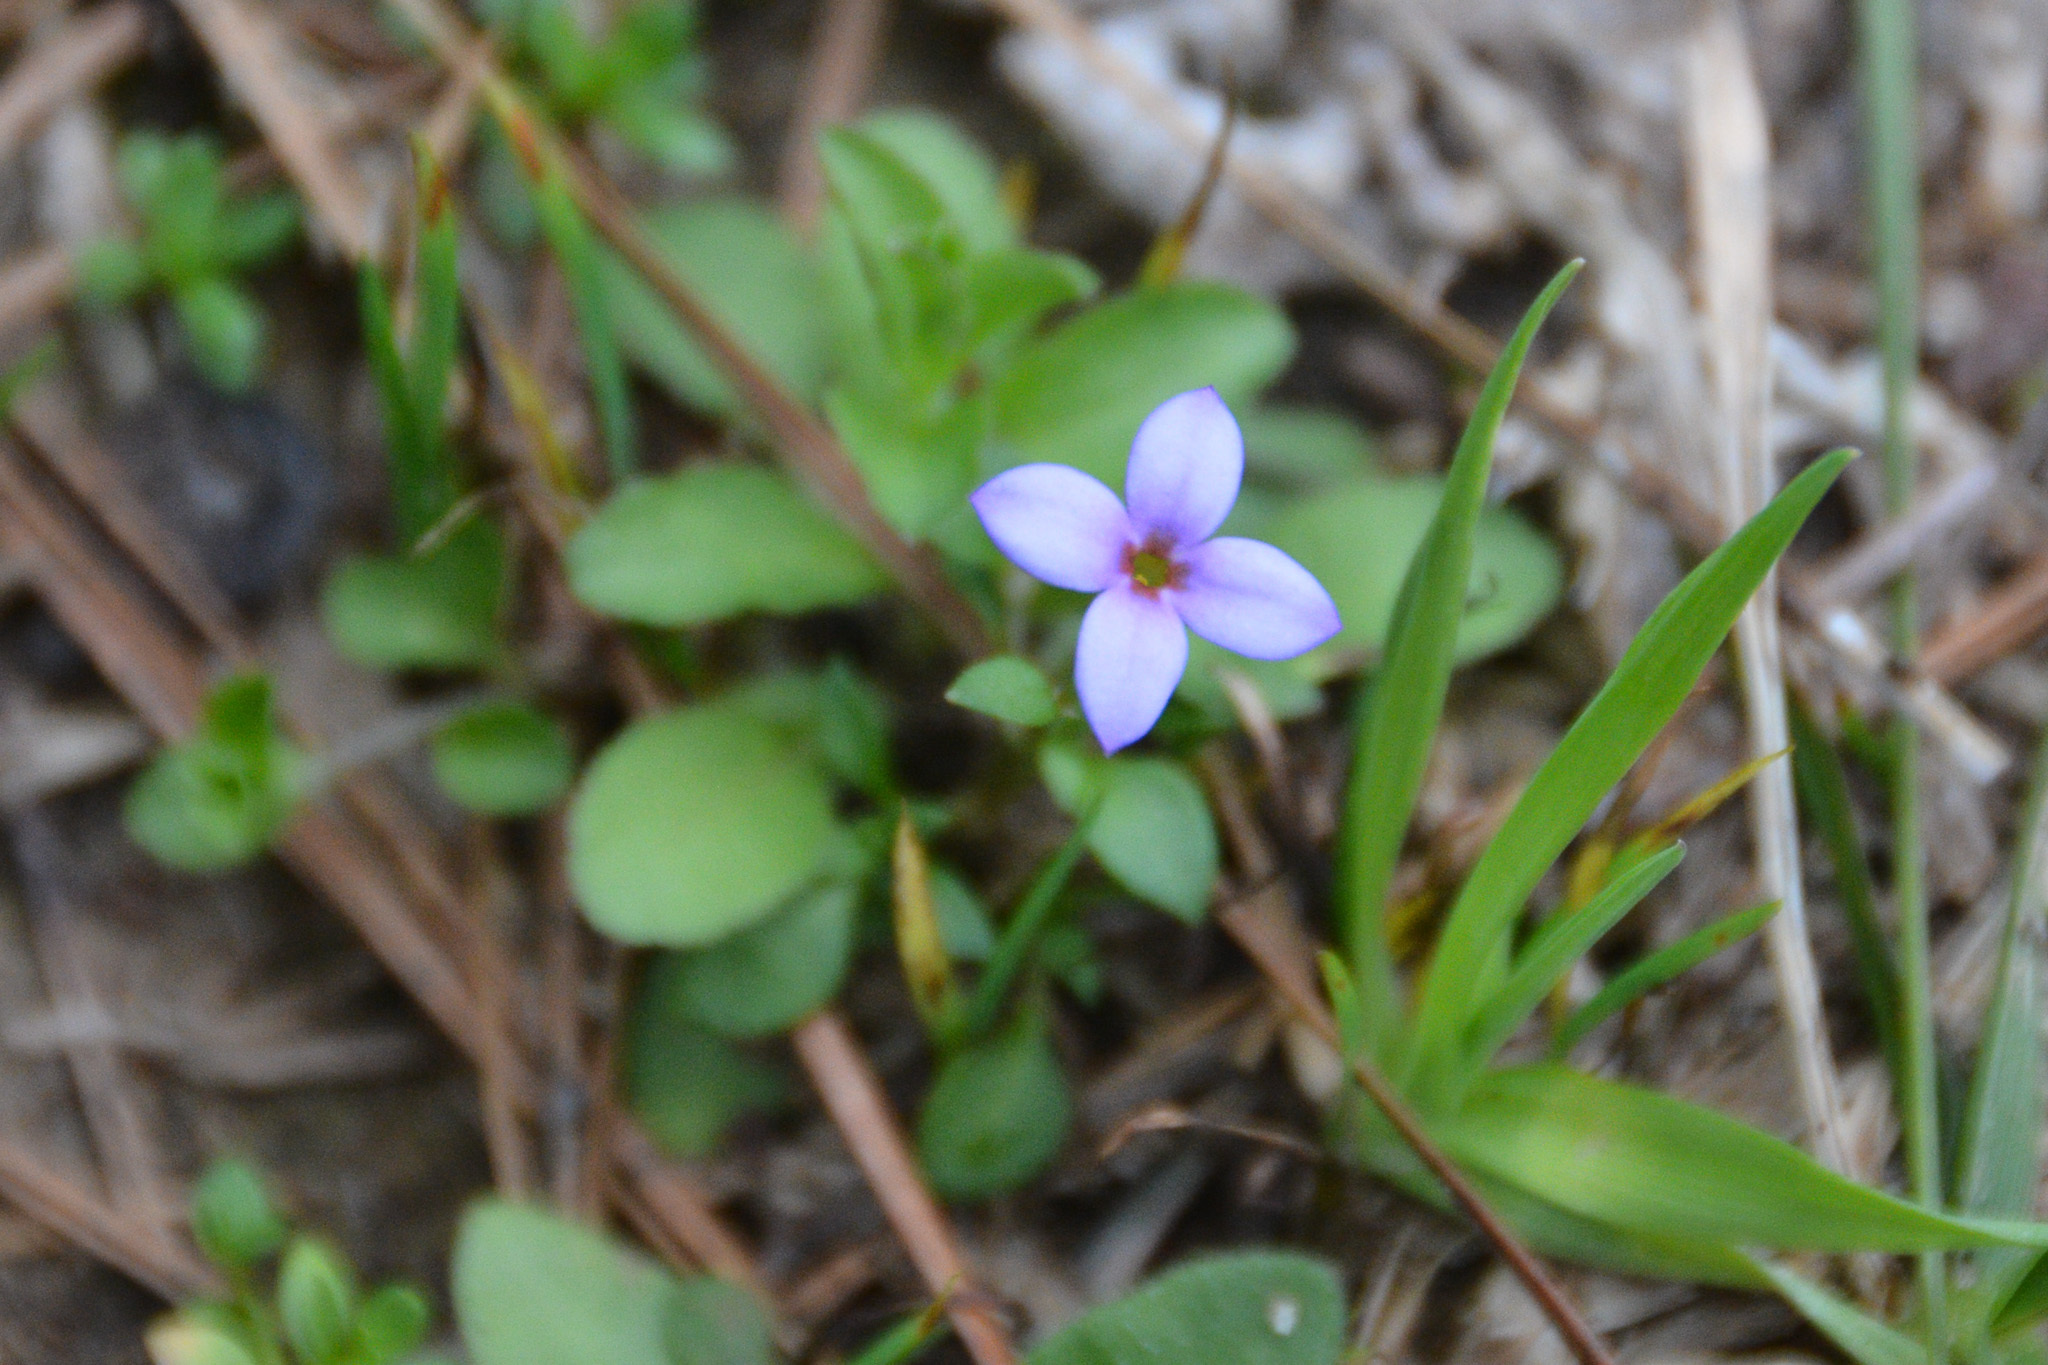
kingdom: Plantae
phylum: Tracheophyta
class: Magnoliopsida
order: Gentianales
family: Rubiaceae
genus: Houstonia
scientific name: Houstonia pusilla
